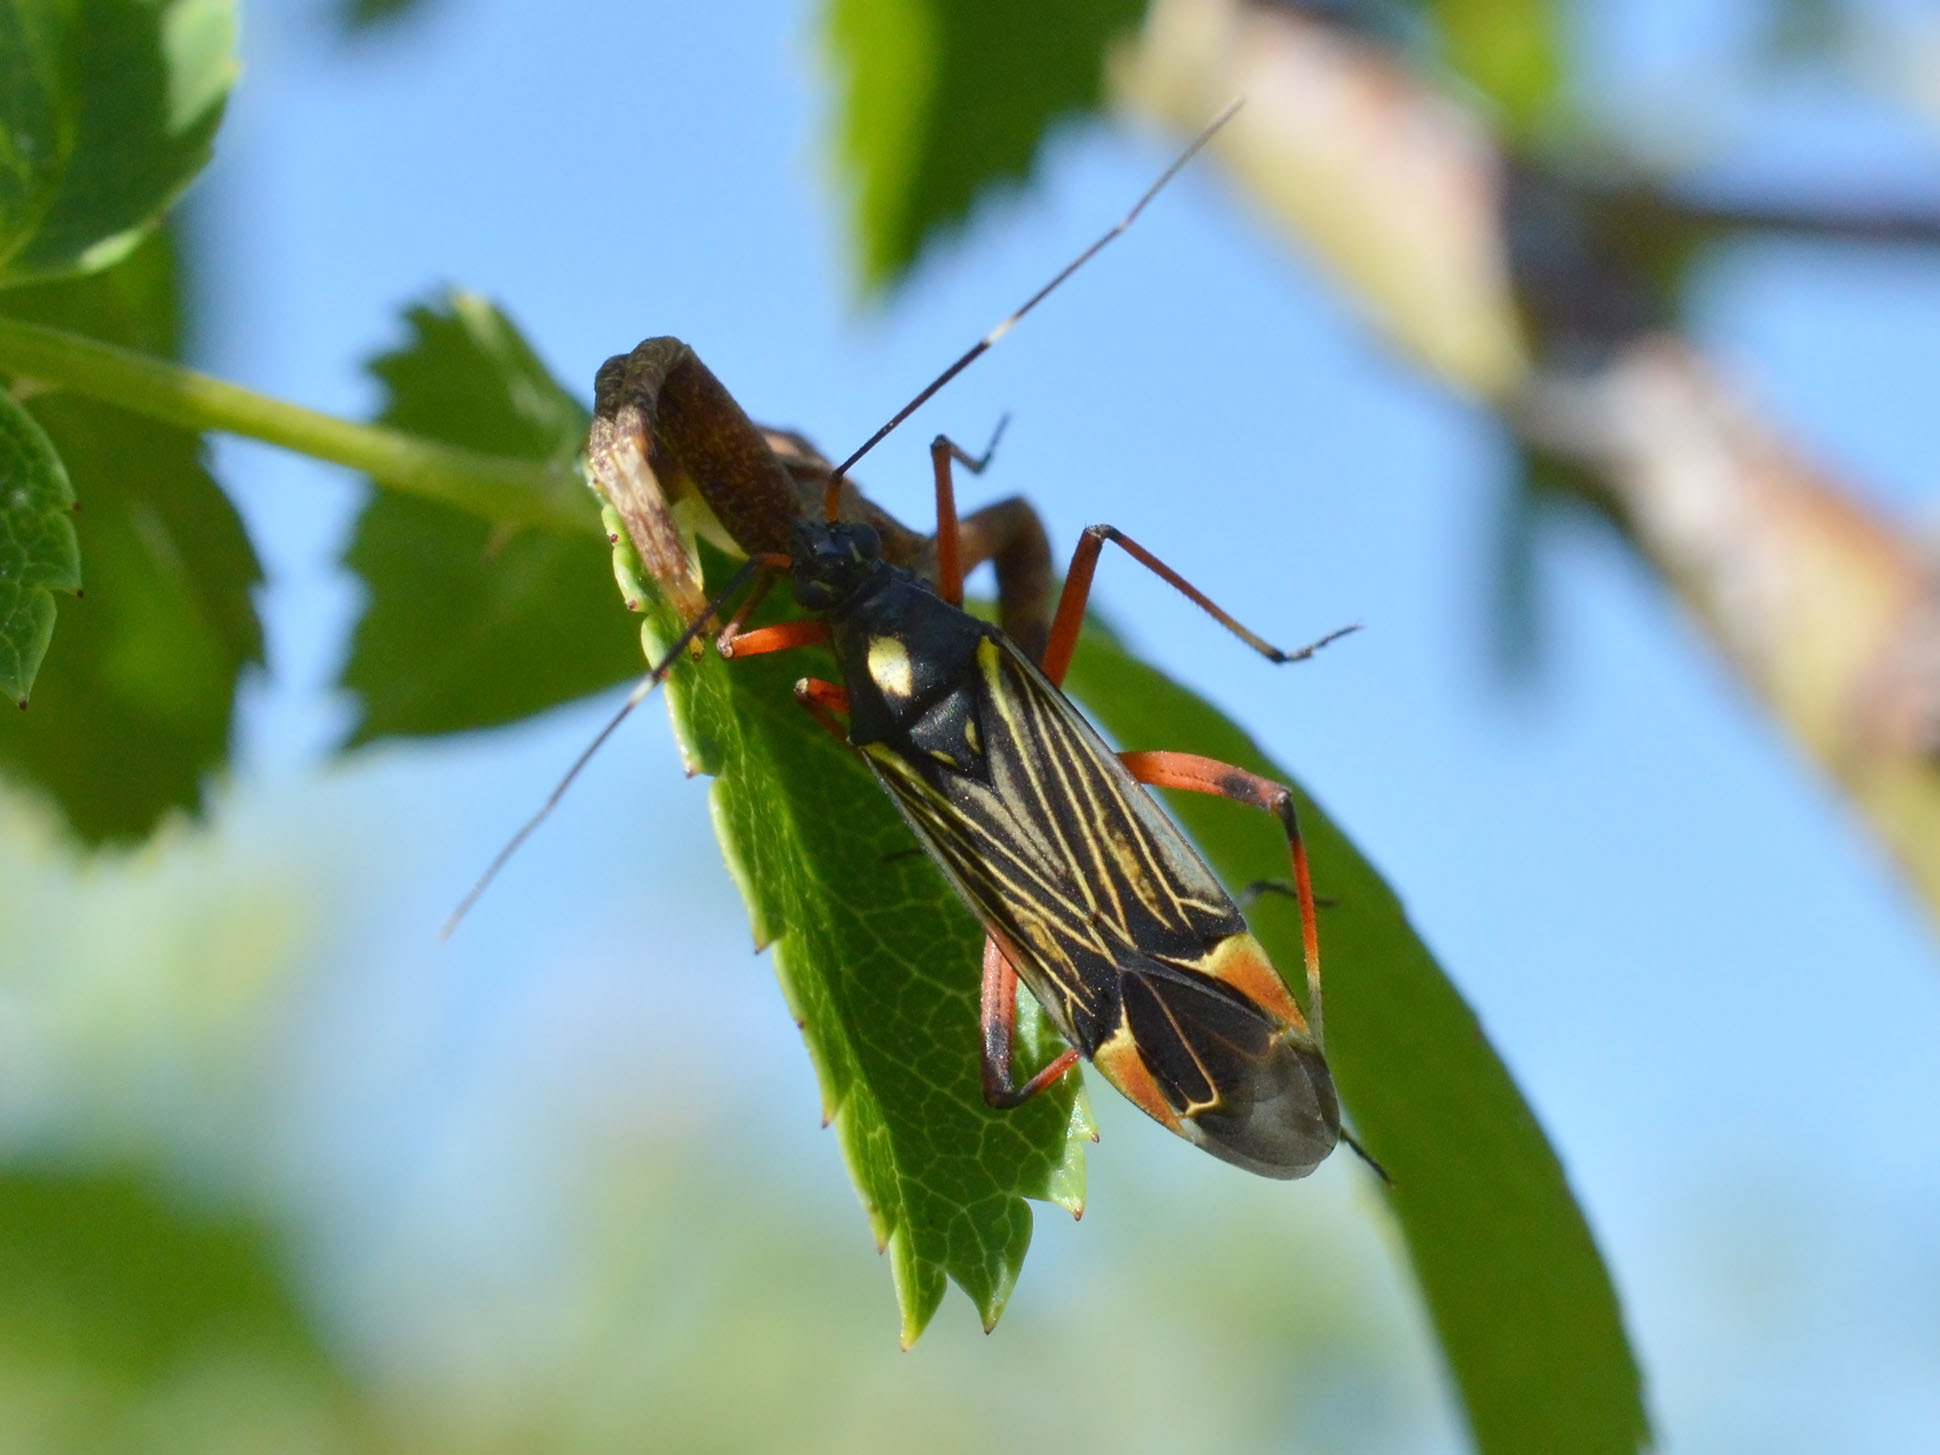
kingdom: Animalia
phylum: Arthropoda
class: Insecta
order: Hemiptera
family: Miridae
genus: Miris
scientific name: Miris striatus
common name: Fine streaked bugkin
